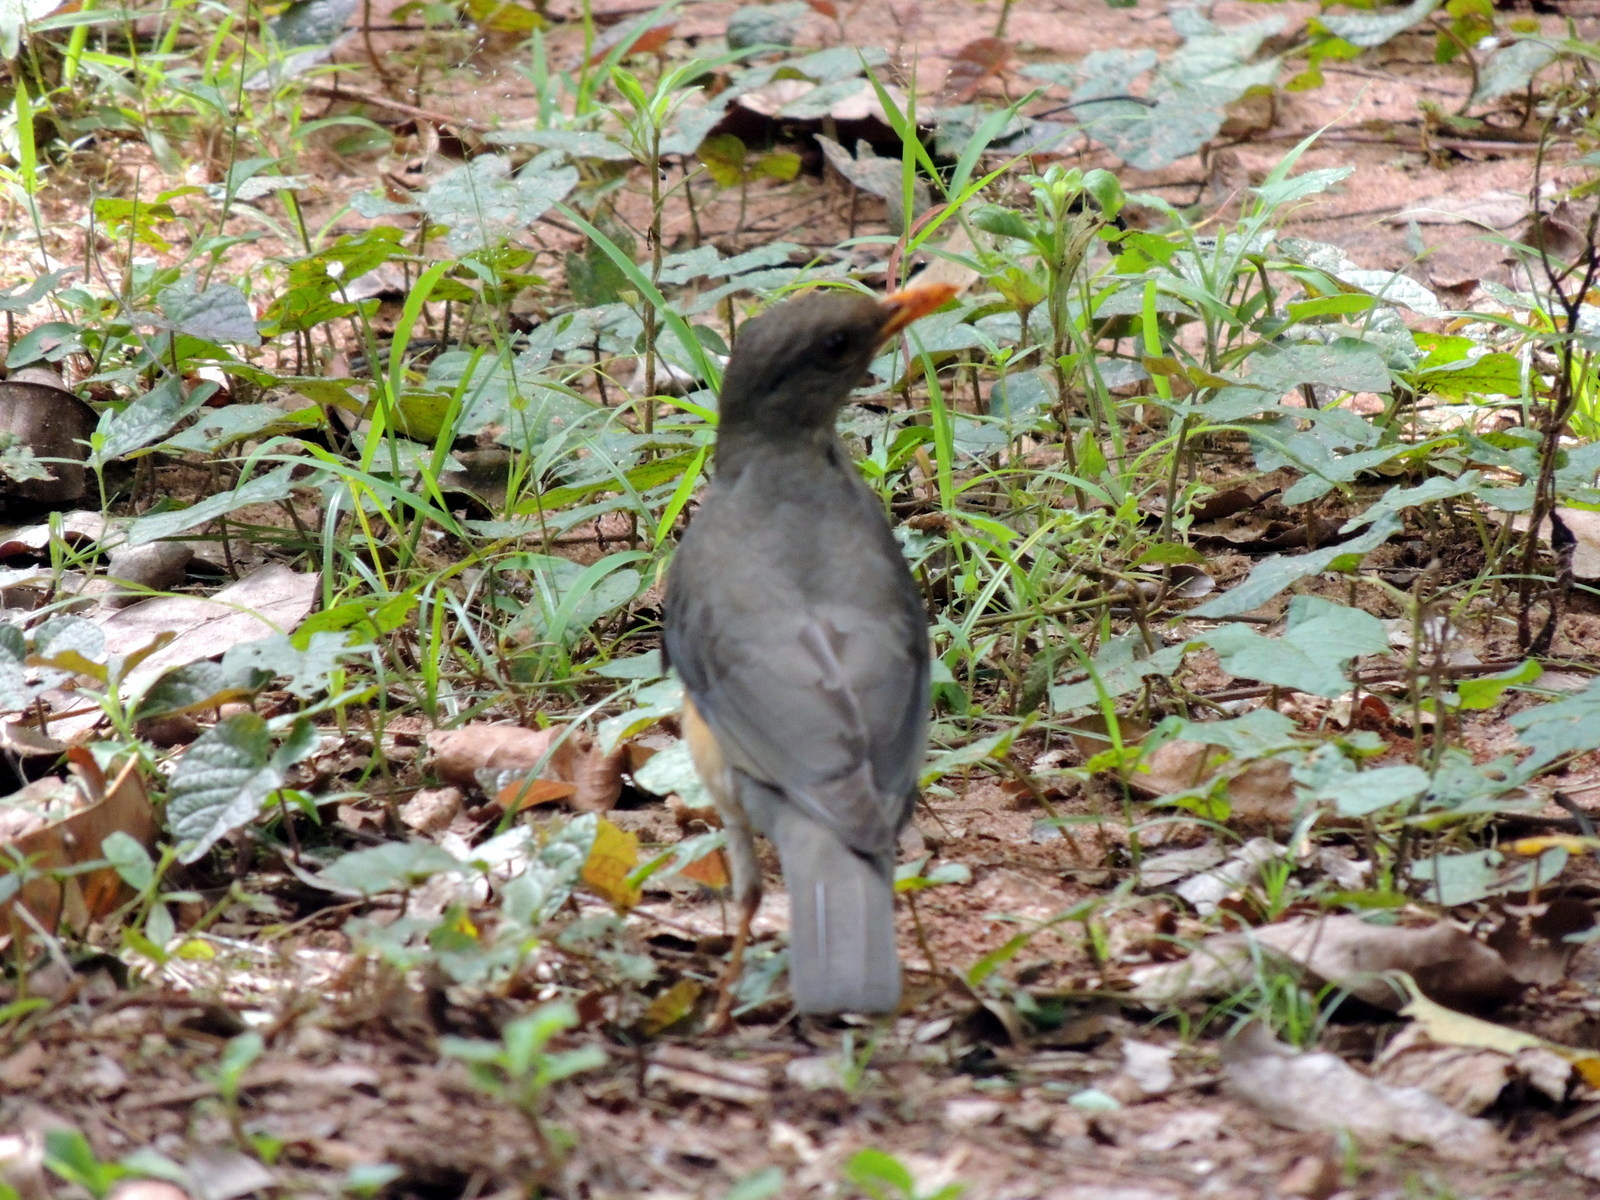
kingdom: Animalia
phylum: Chordata
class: Aves
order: Passeriformes
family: Turdidae
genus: Turdus
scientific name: Turdus pelios
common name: African thrush
